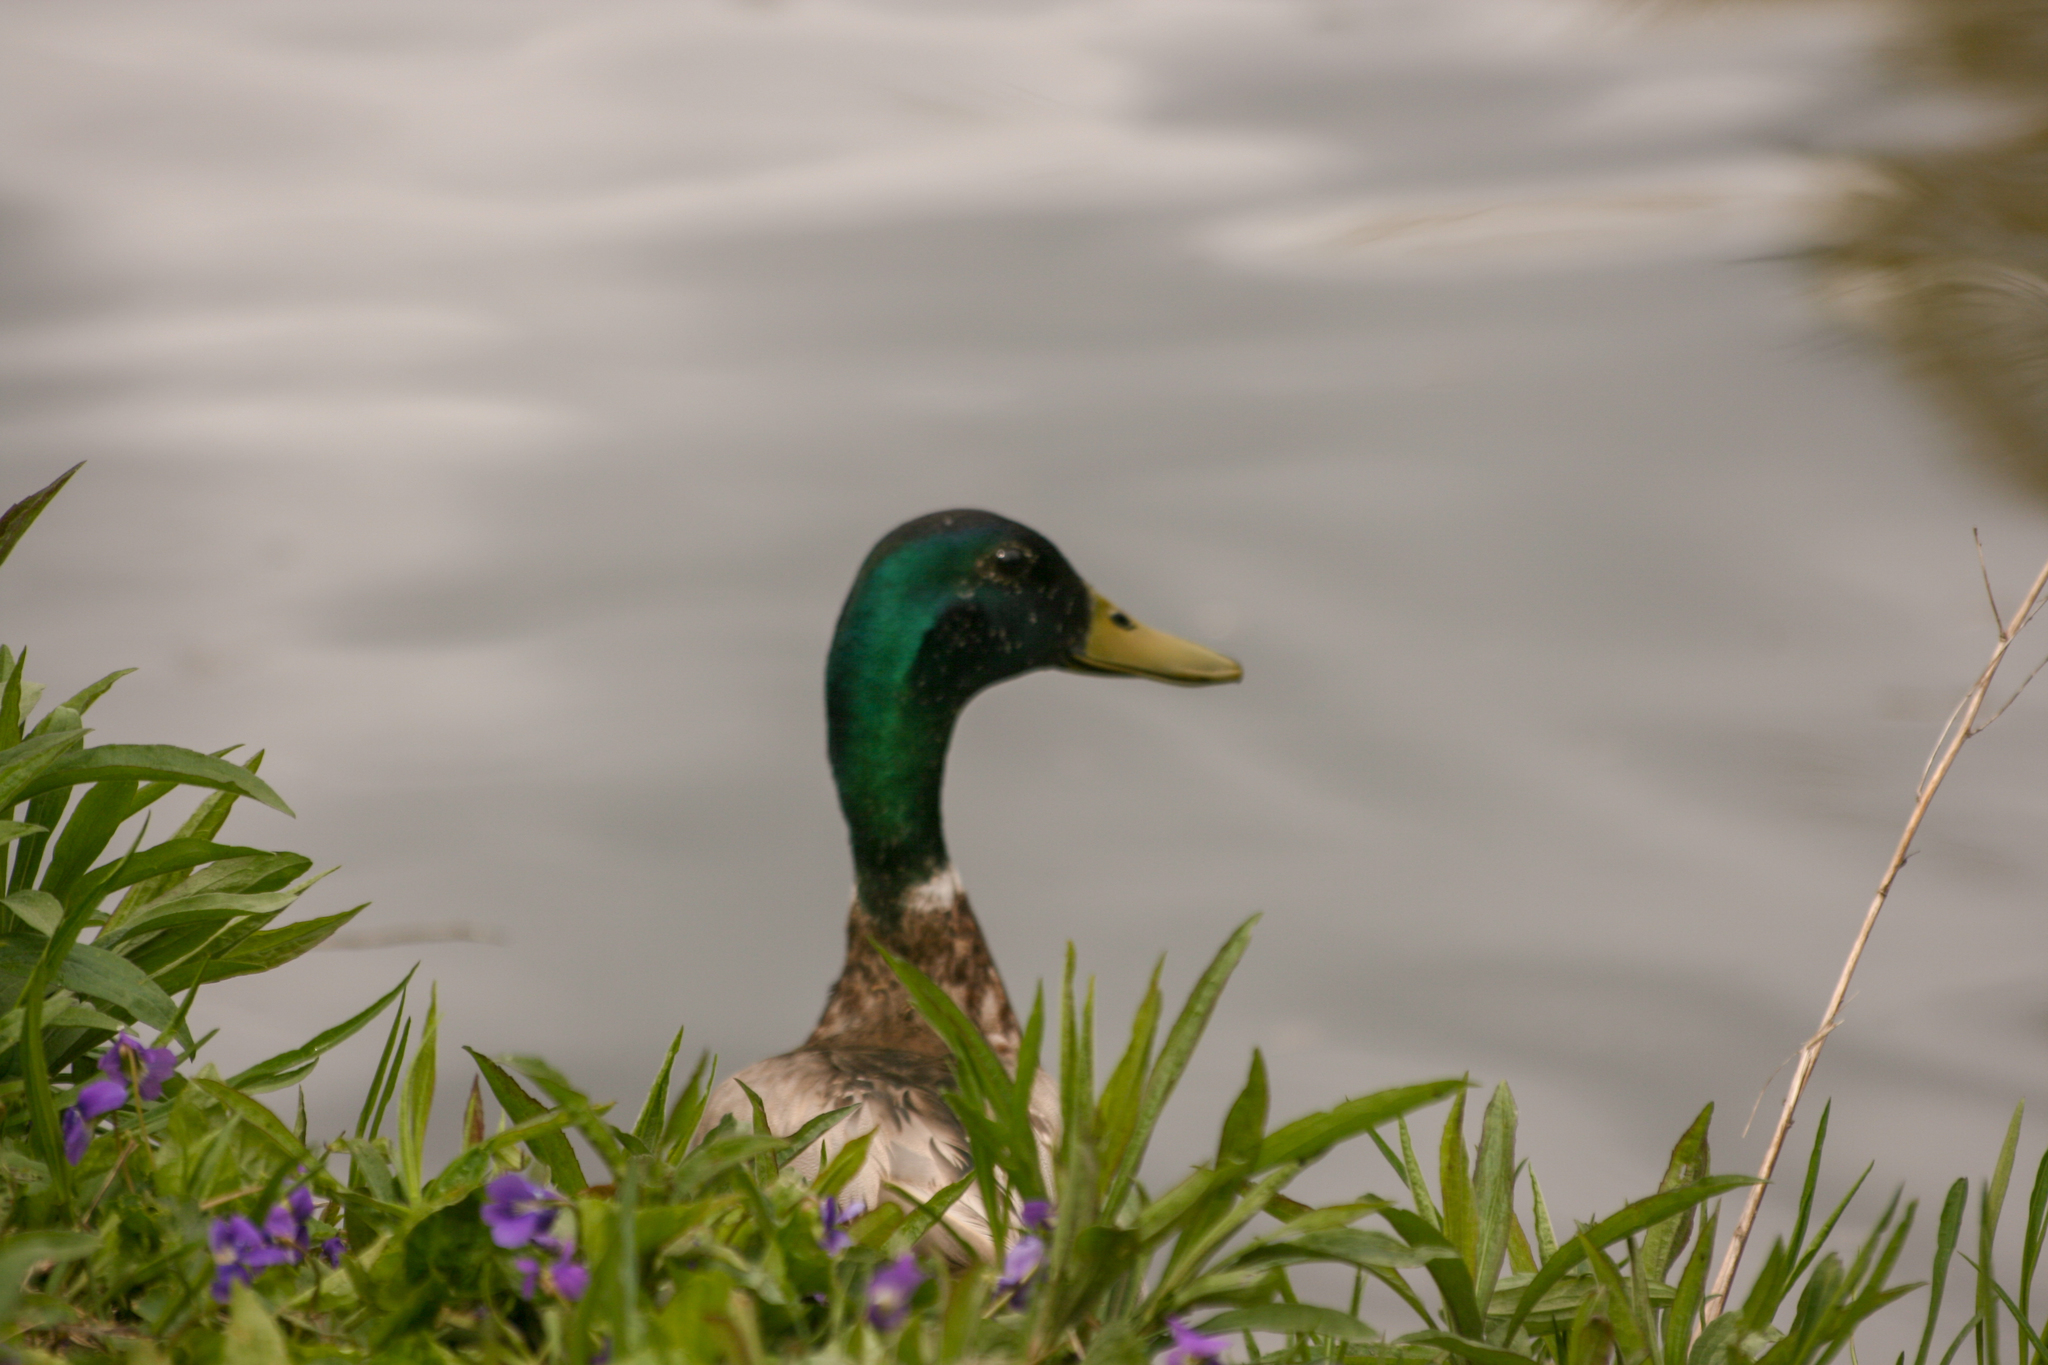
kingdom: Animalia
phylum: Chordata
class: Aves
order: Anseriformes
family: Anatidae
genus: Anas
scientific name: Anas platyrhynchos
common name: Mallard
